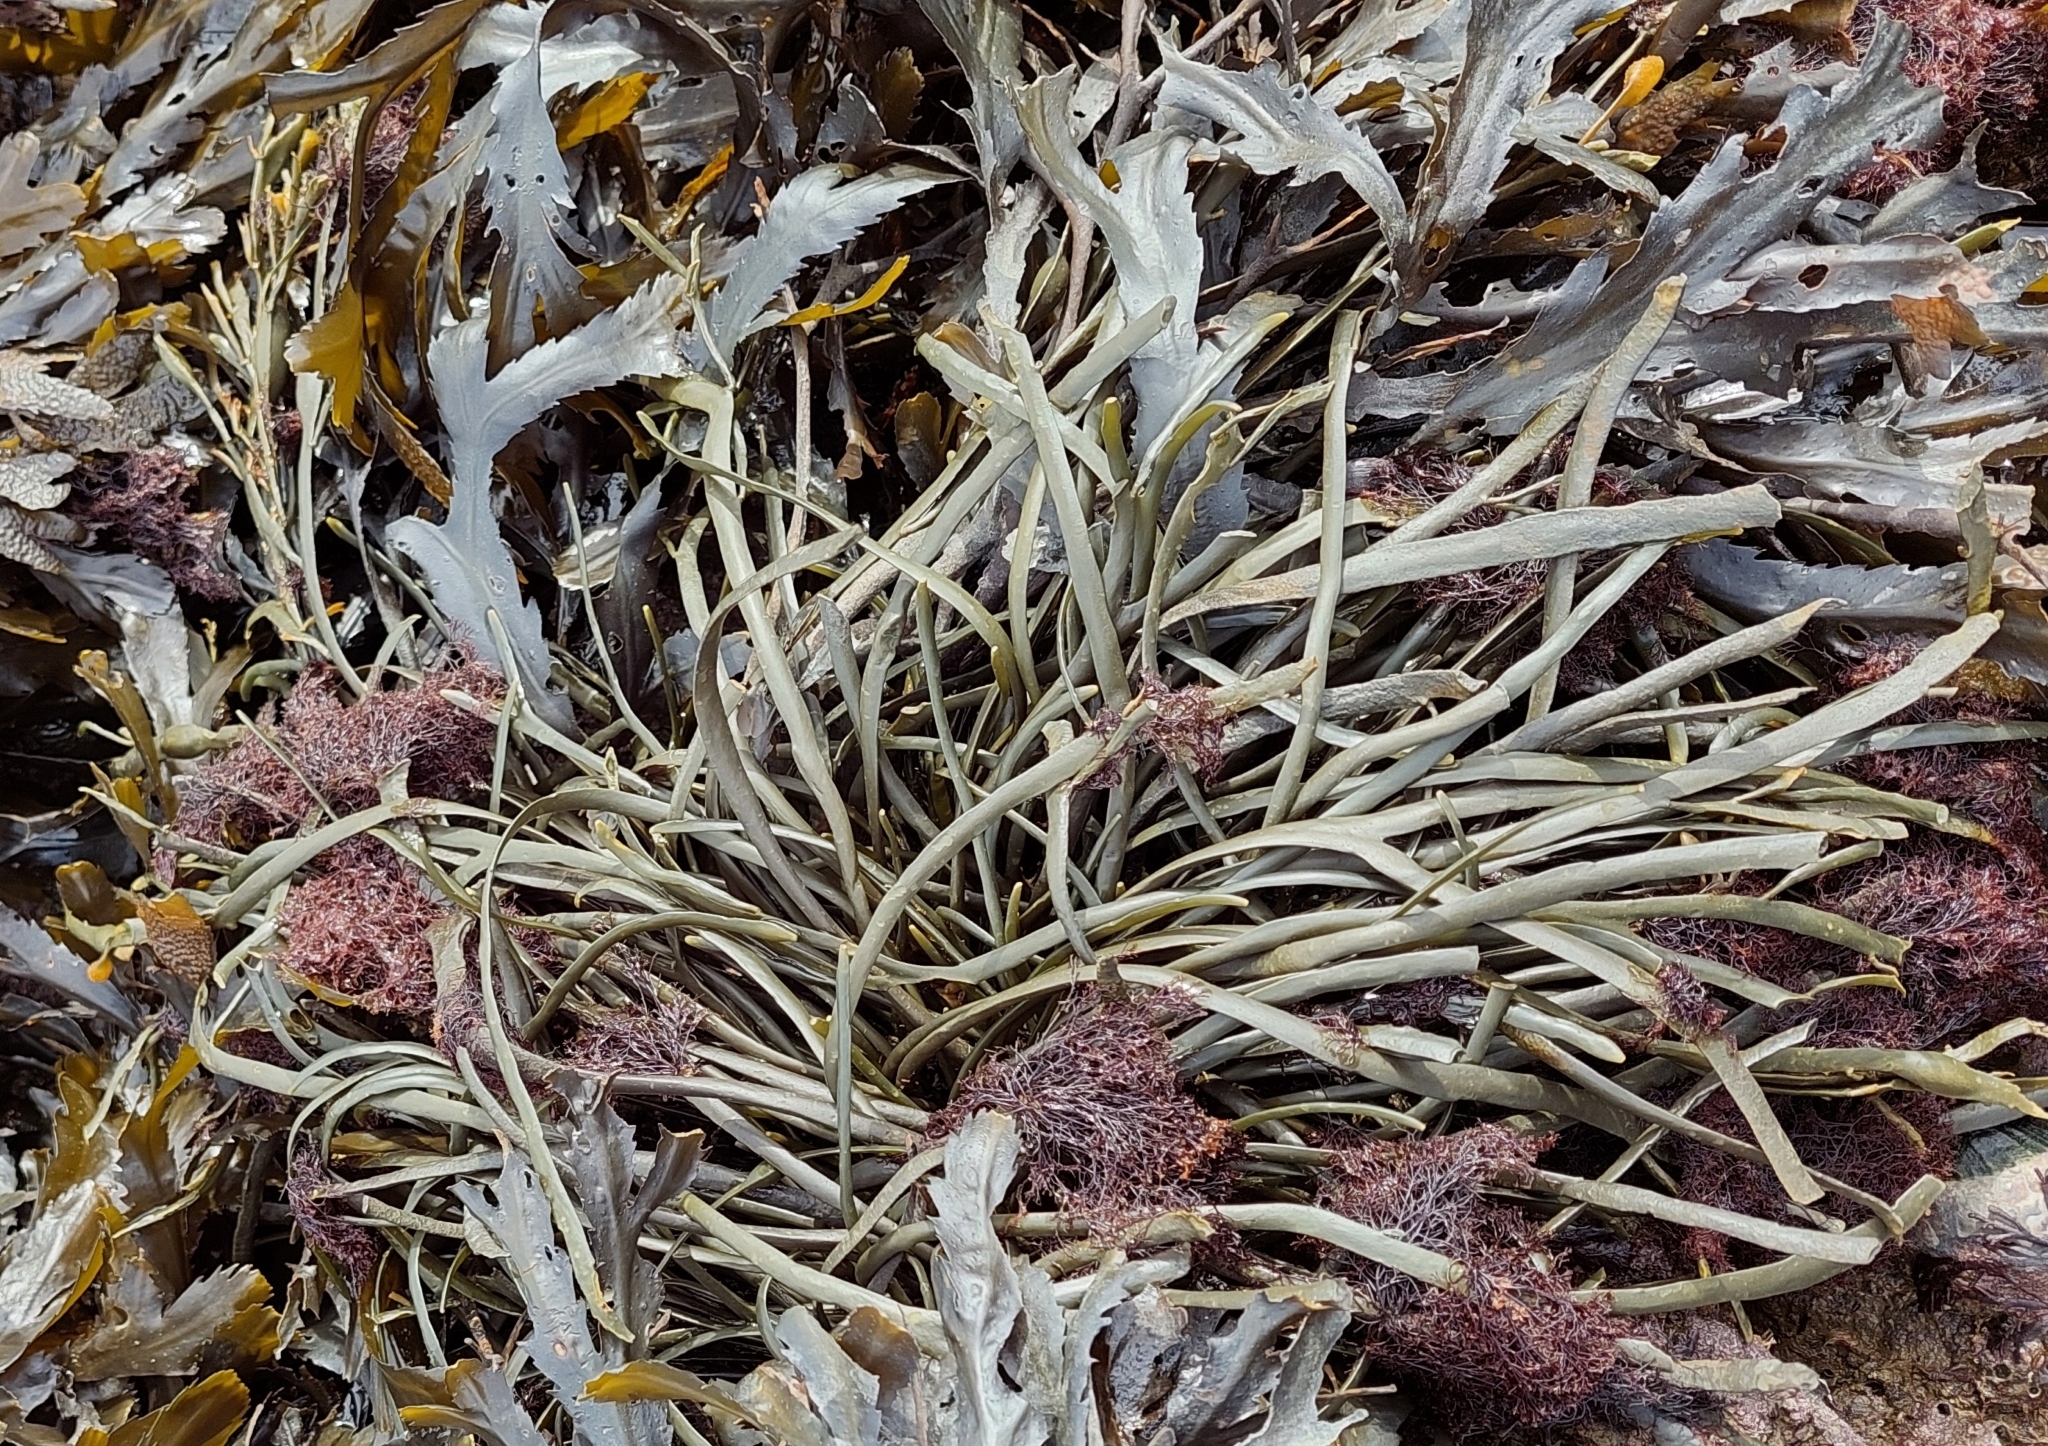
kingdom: Chromista
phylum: Ochrophyta
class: Phaeophyceae
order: Fucales
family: Fucaceae
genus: Ascophyllum
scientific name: Ascophyllum nodosum
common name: Knotted wrack
